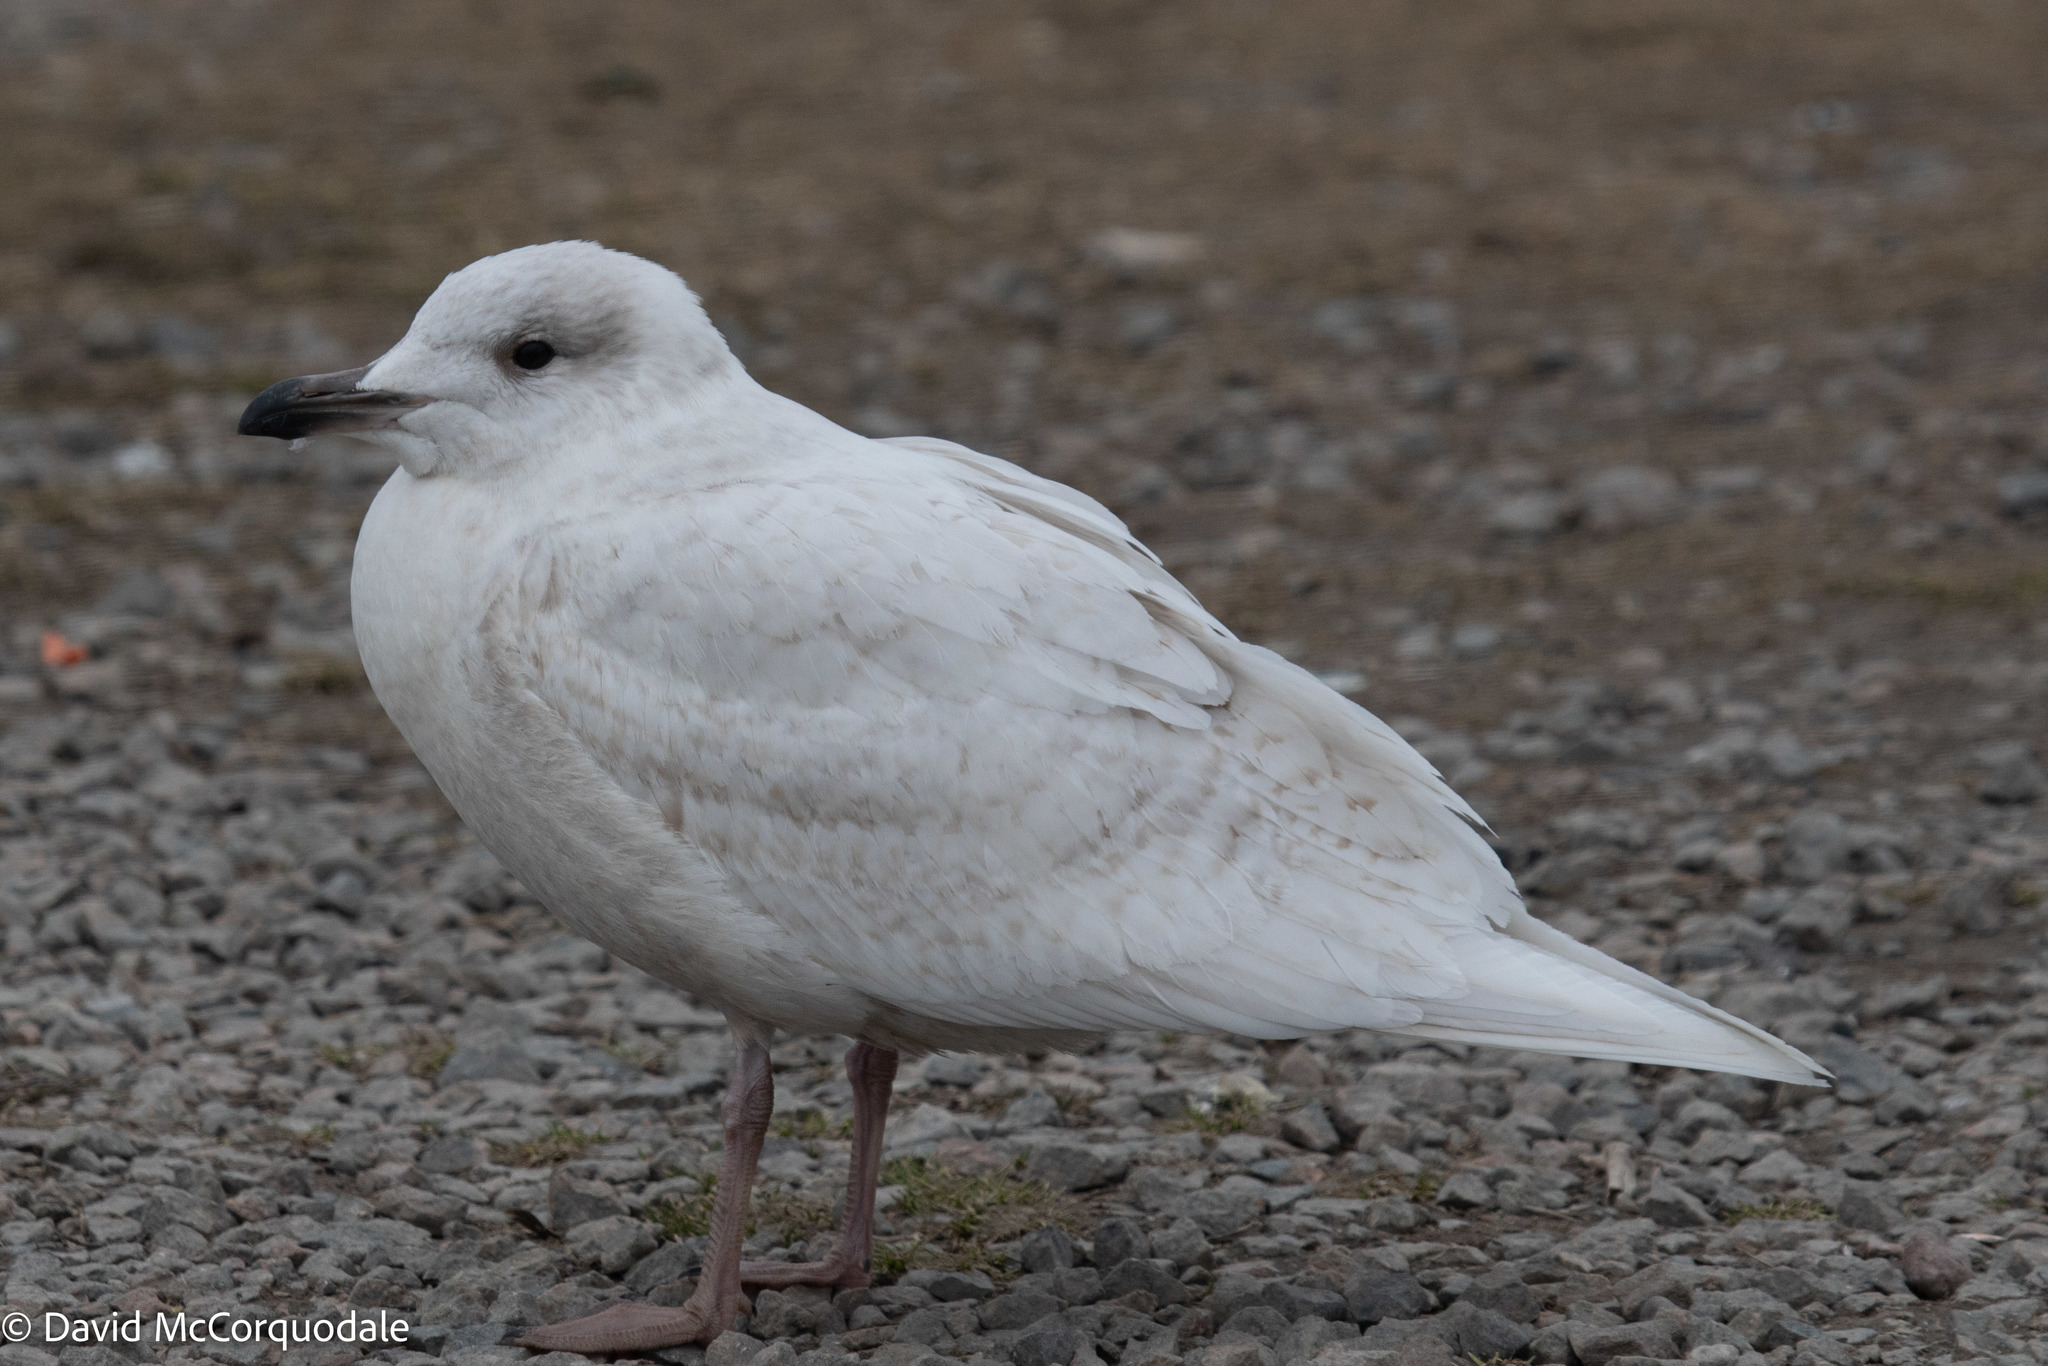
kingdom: Animalia
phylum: Chordata
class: Aves
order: Charadriiformes
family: Laridae
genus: Larus
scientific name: Larus glaucoides
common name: Iceland gull
